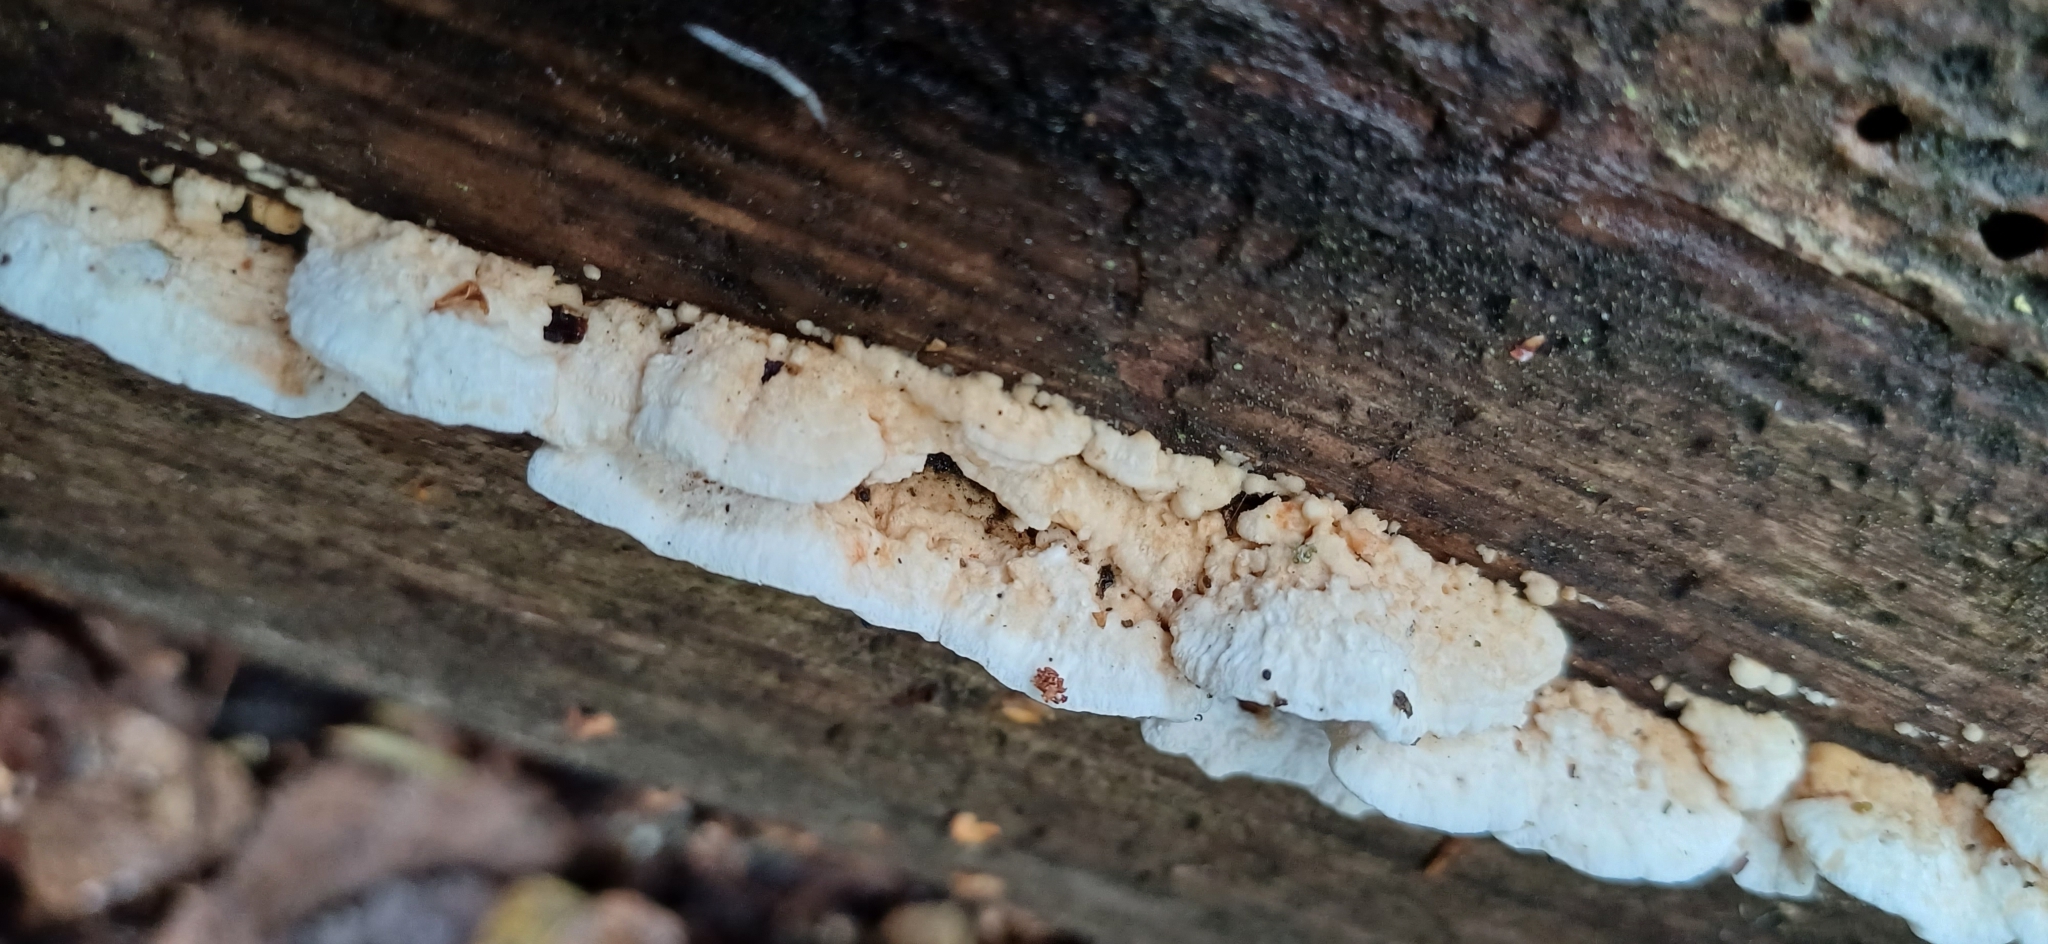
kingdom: Fungi
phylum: Basidiomycota
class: Agaricomycetes
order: Polyporales
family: Fomitopsidaceae
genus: Neoantrodia
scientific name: Neoantrodia serialis
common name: Serried porecrust
